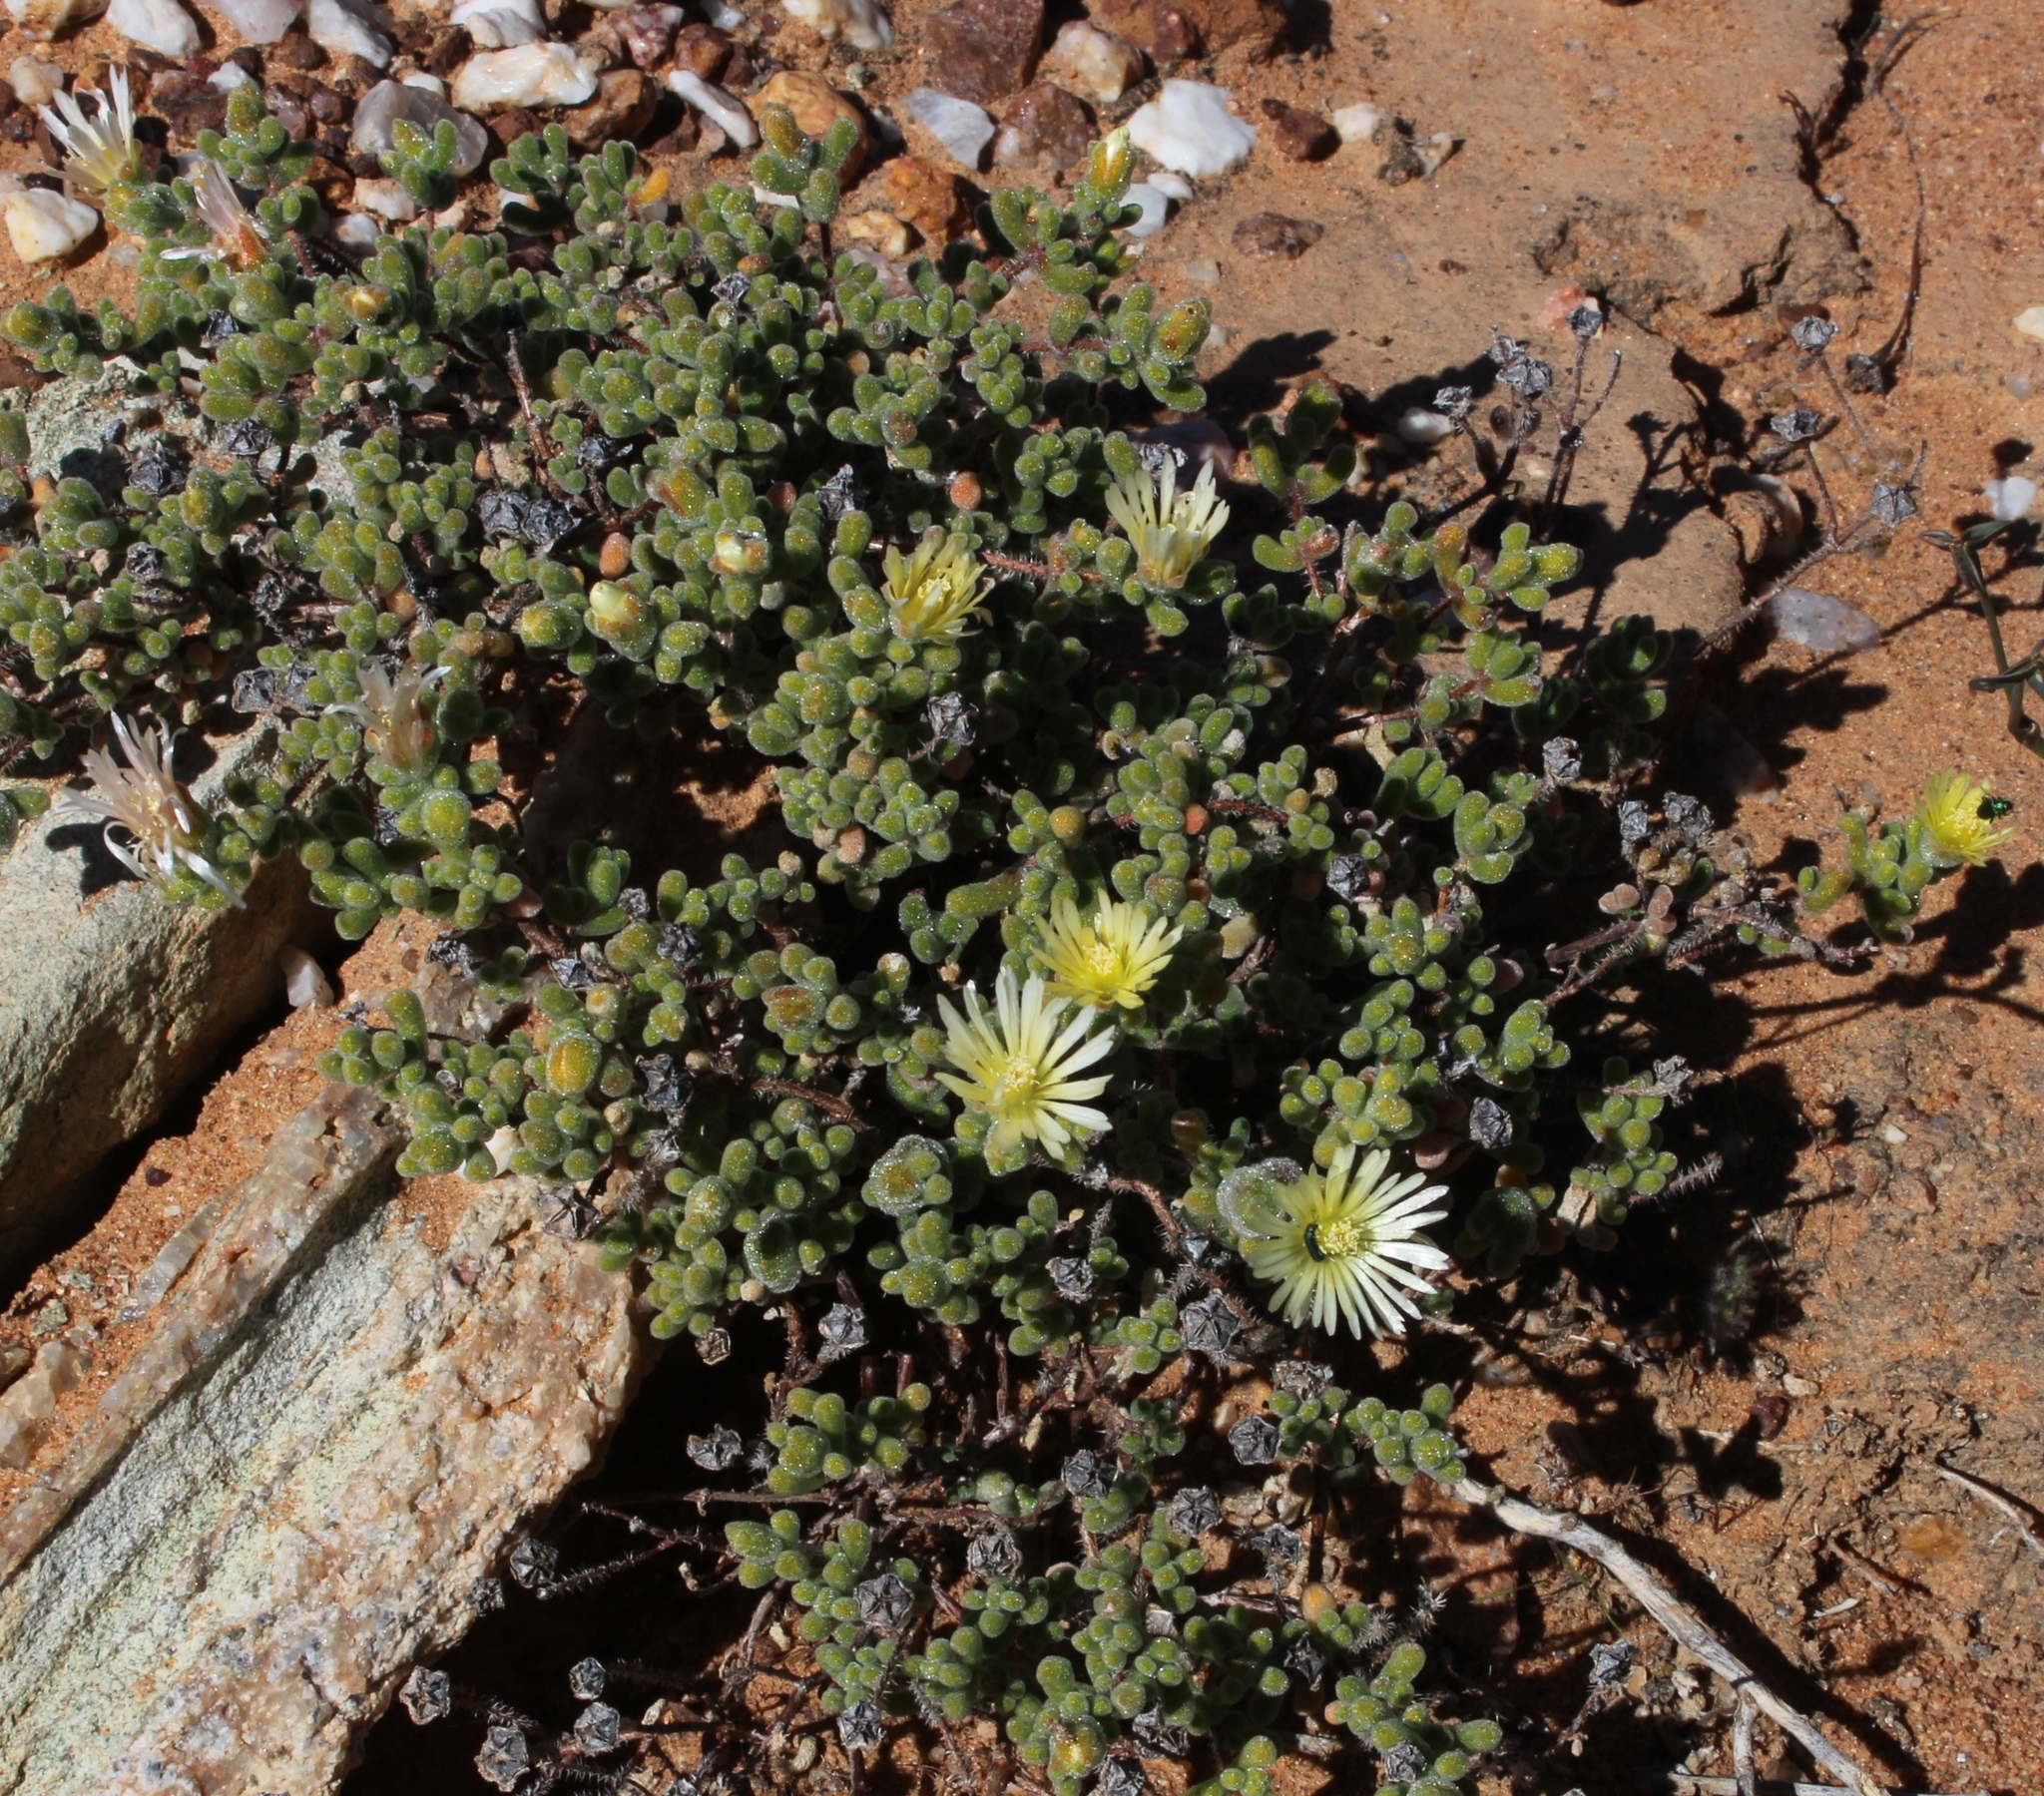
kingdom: Plantae
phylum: Tracheophyta
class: Magnoliopsida
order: Caryophyllales
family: Aizoaceae
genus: Drosanthemum
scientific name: Drosanthemum schoenlandianum
